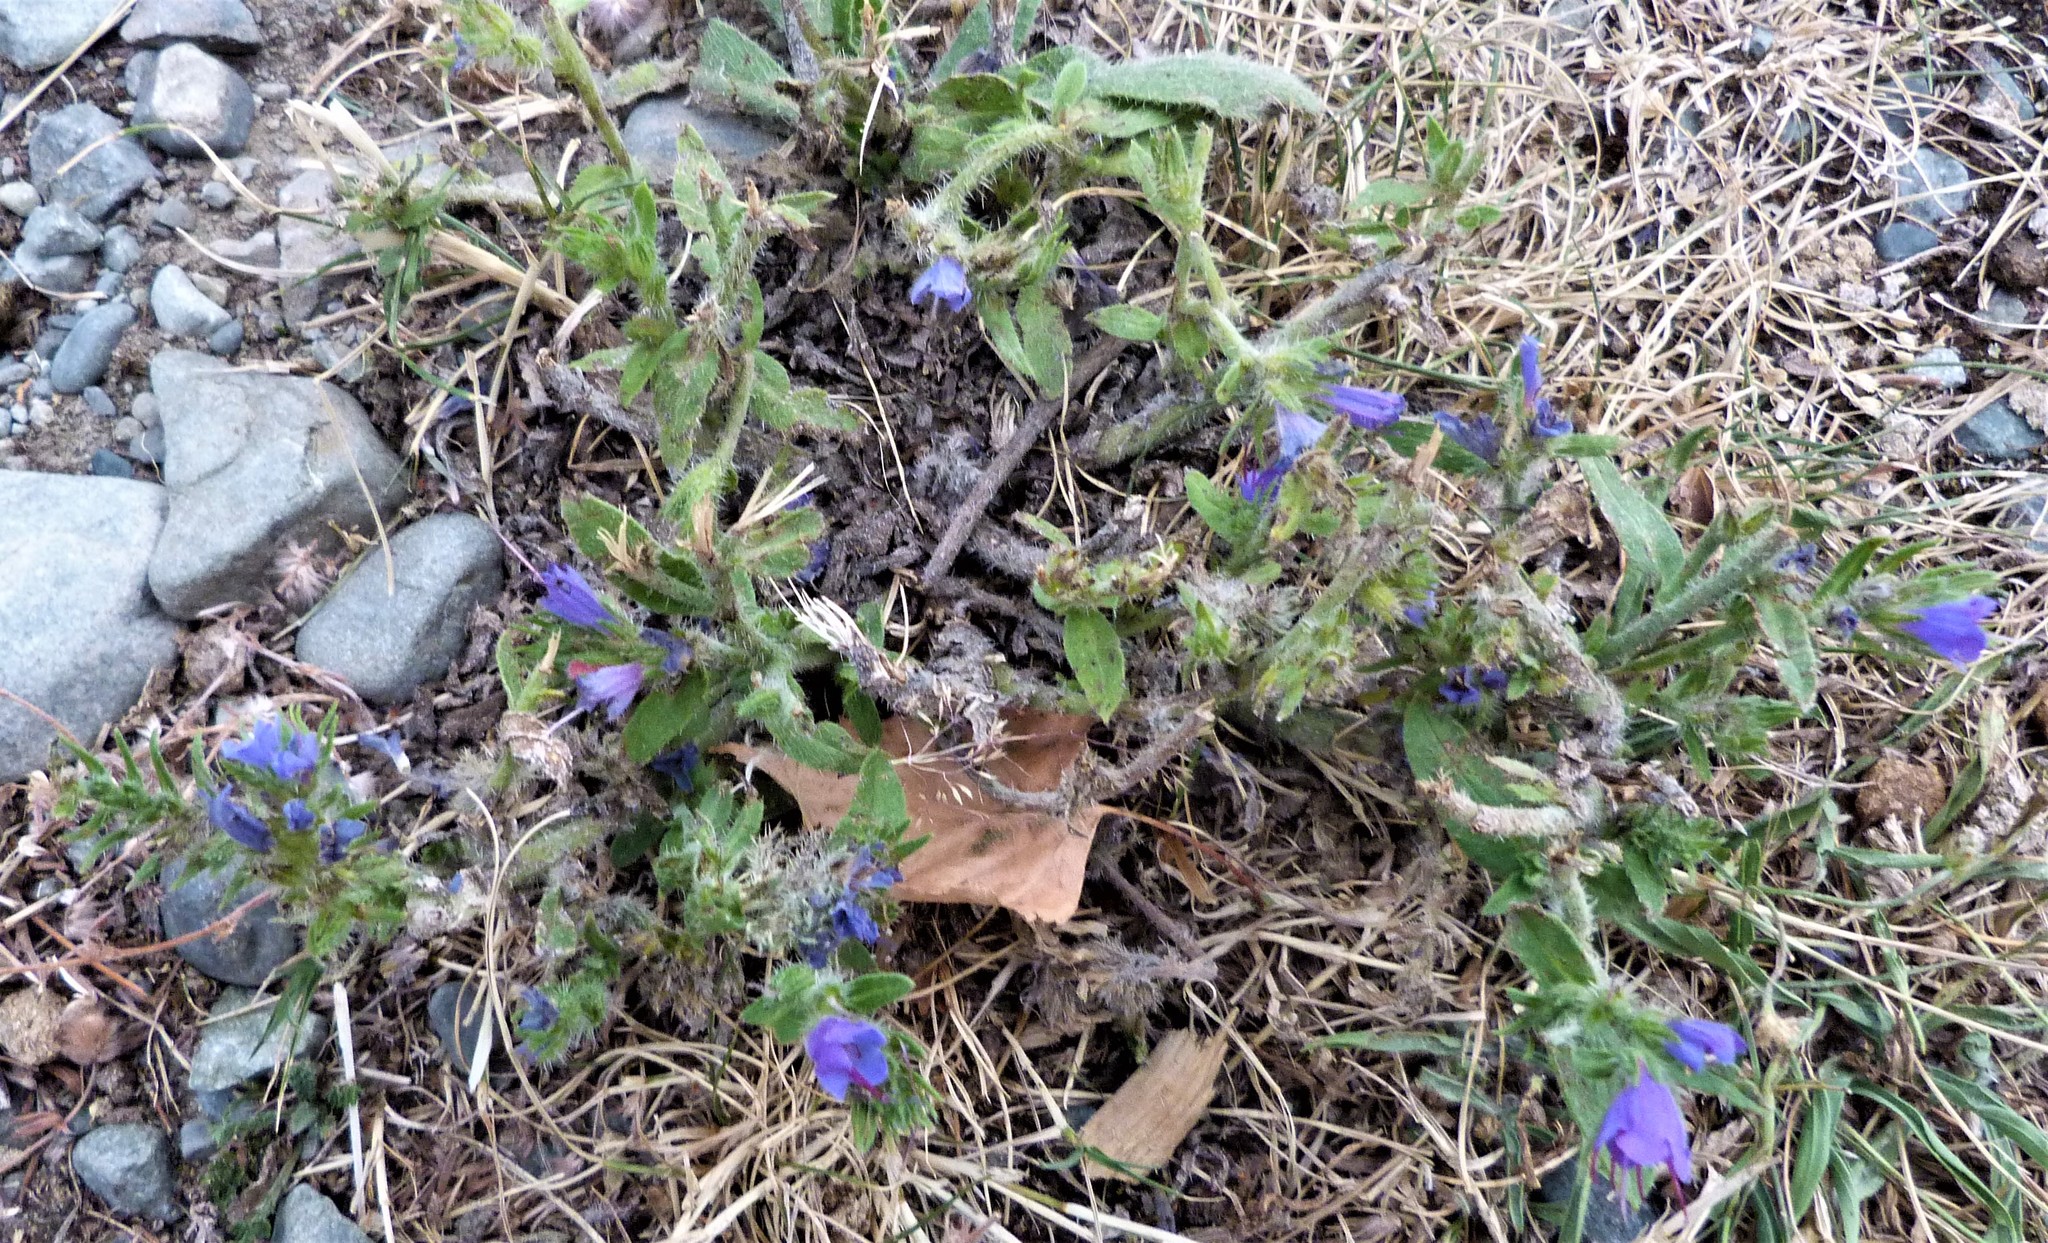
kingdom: Plantae
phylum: Tracheophyta
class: Magnoliopsida
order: Boraginales
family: Boraginaceae
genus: Echium
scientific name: Echium vulgare
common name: Common viper's bugloss
